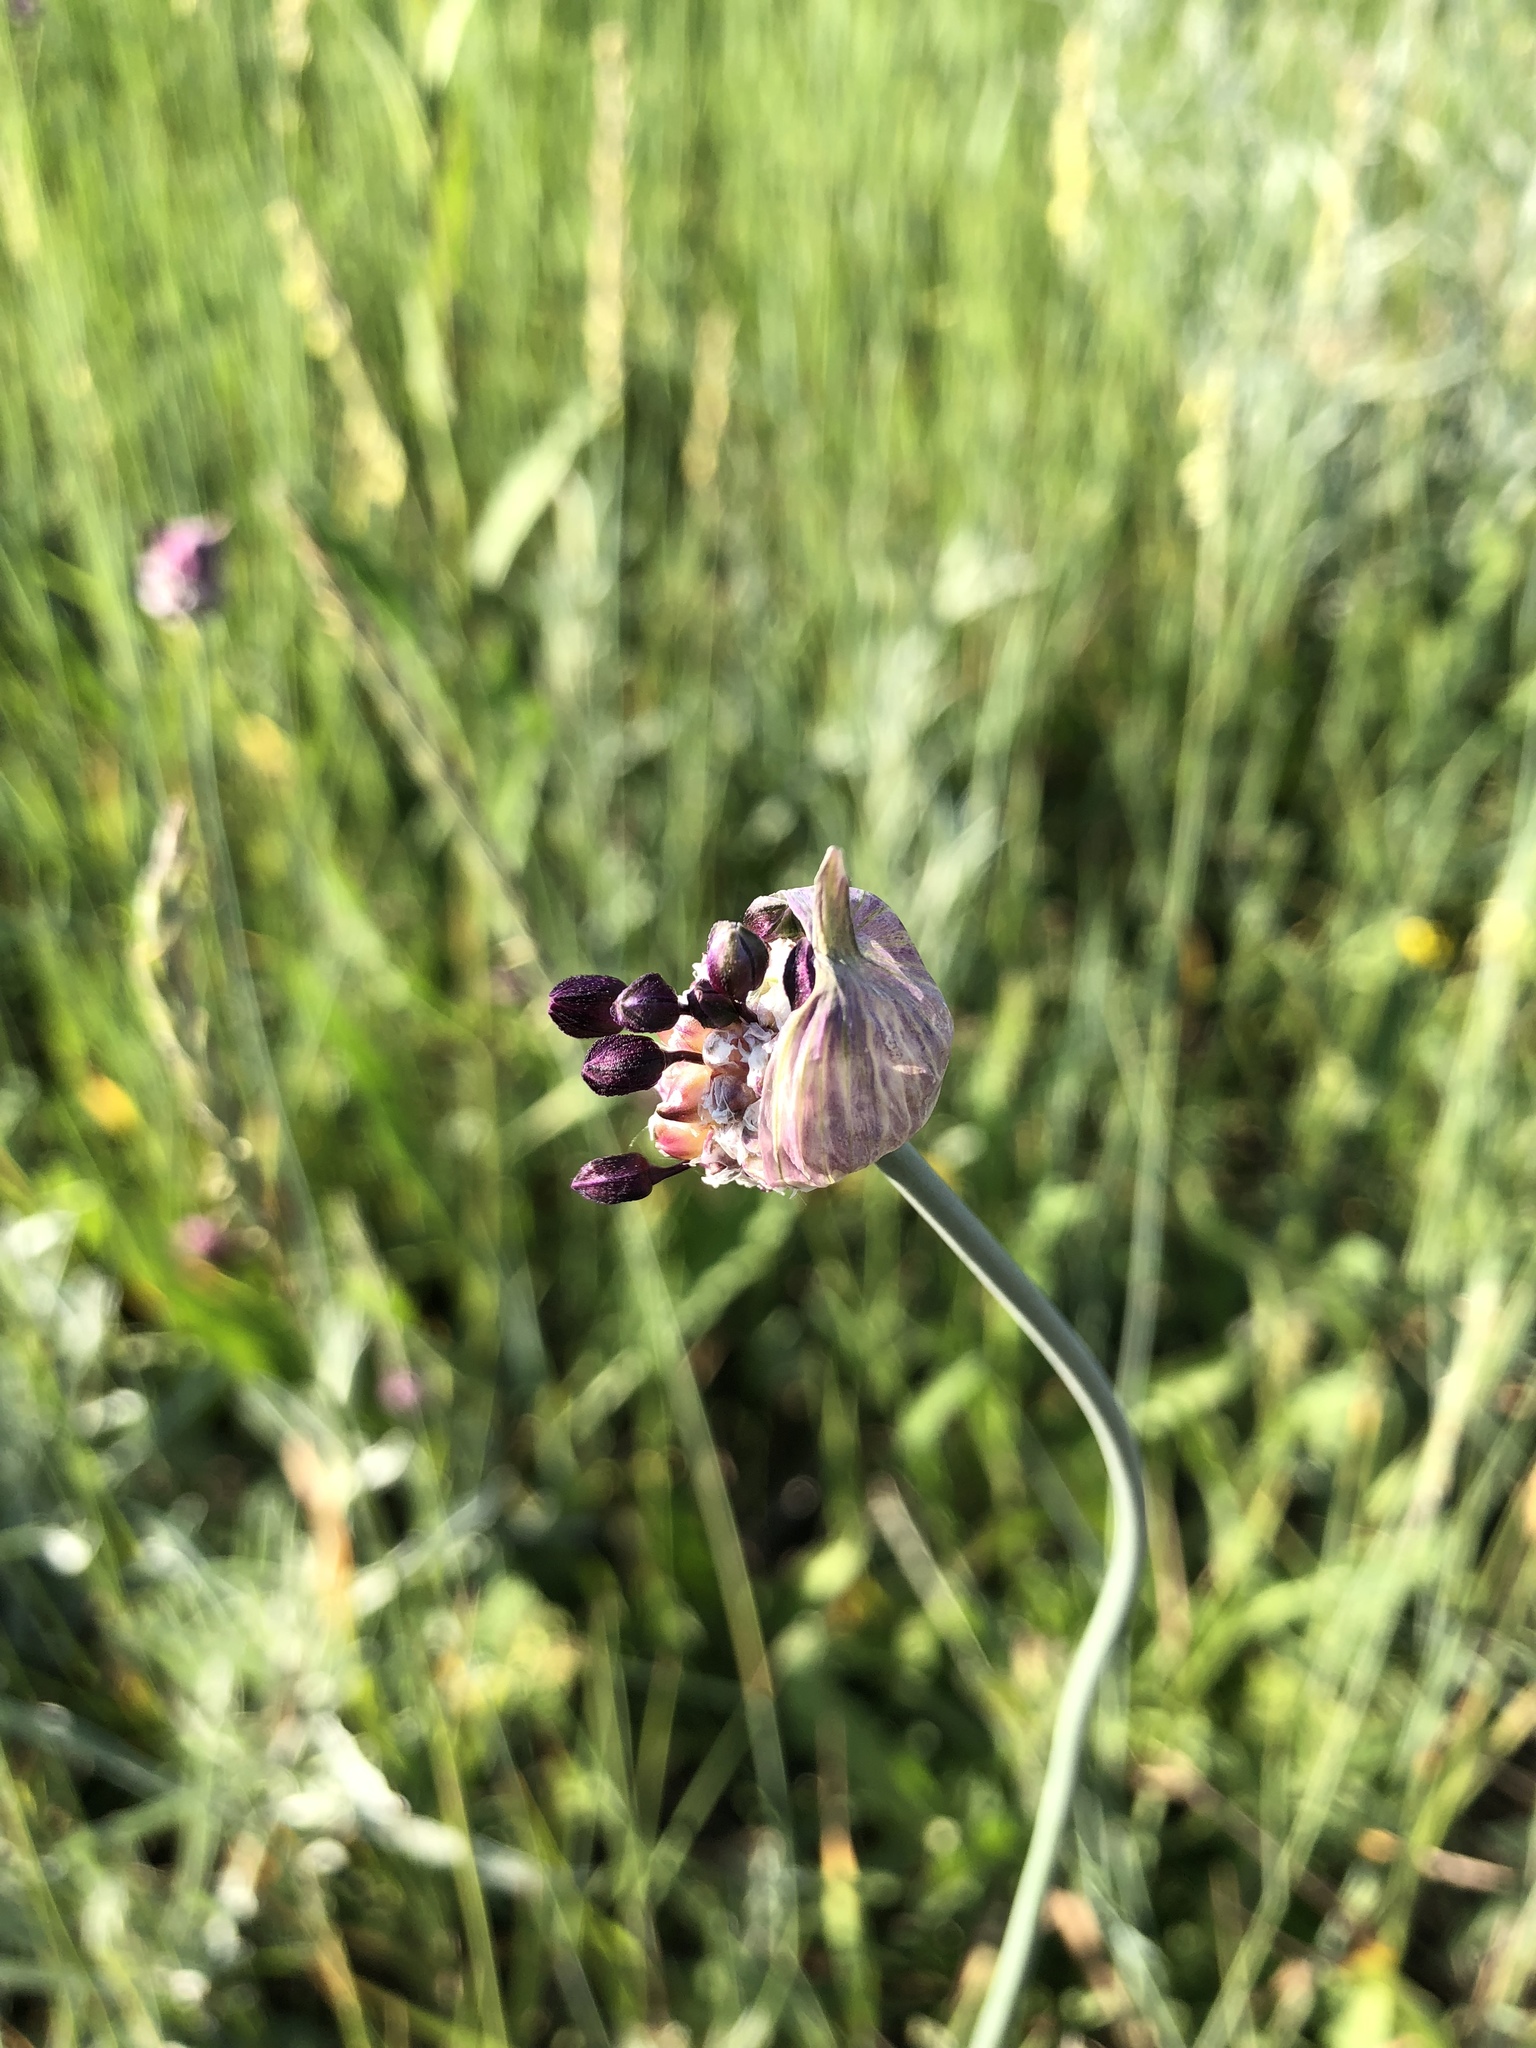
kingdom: Plantae
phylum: Tracheophyta
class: Liliopsida
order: Asparagales
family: Amaryllidaceae
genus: Allium
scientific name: Allium scorodoprasum
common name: Sand leek
